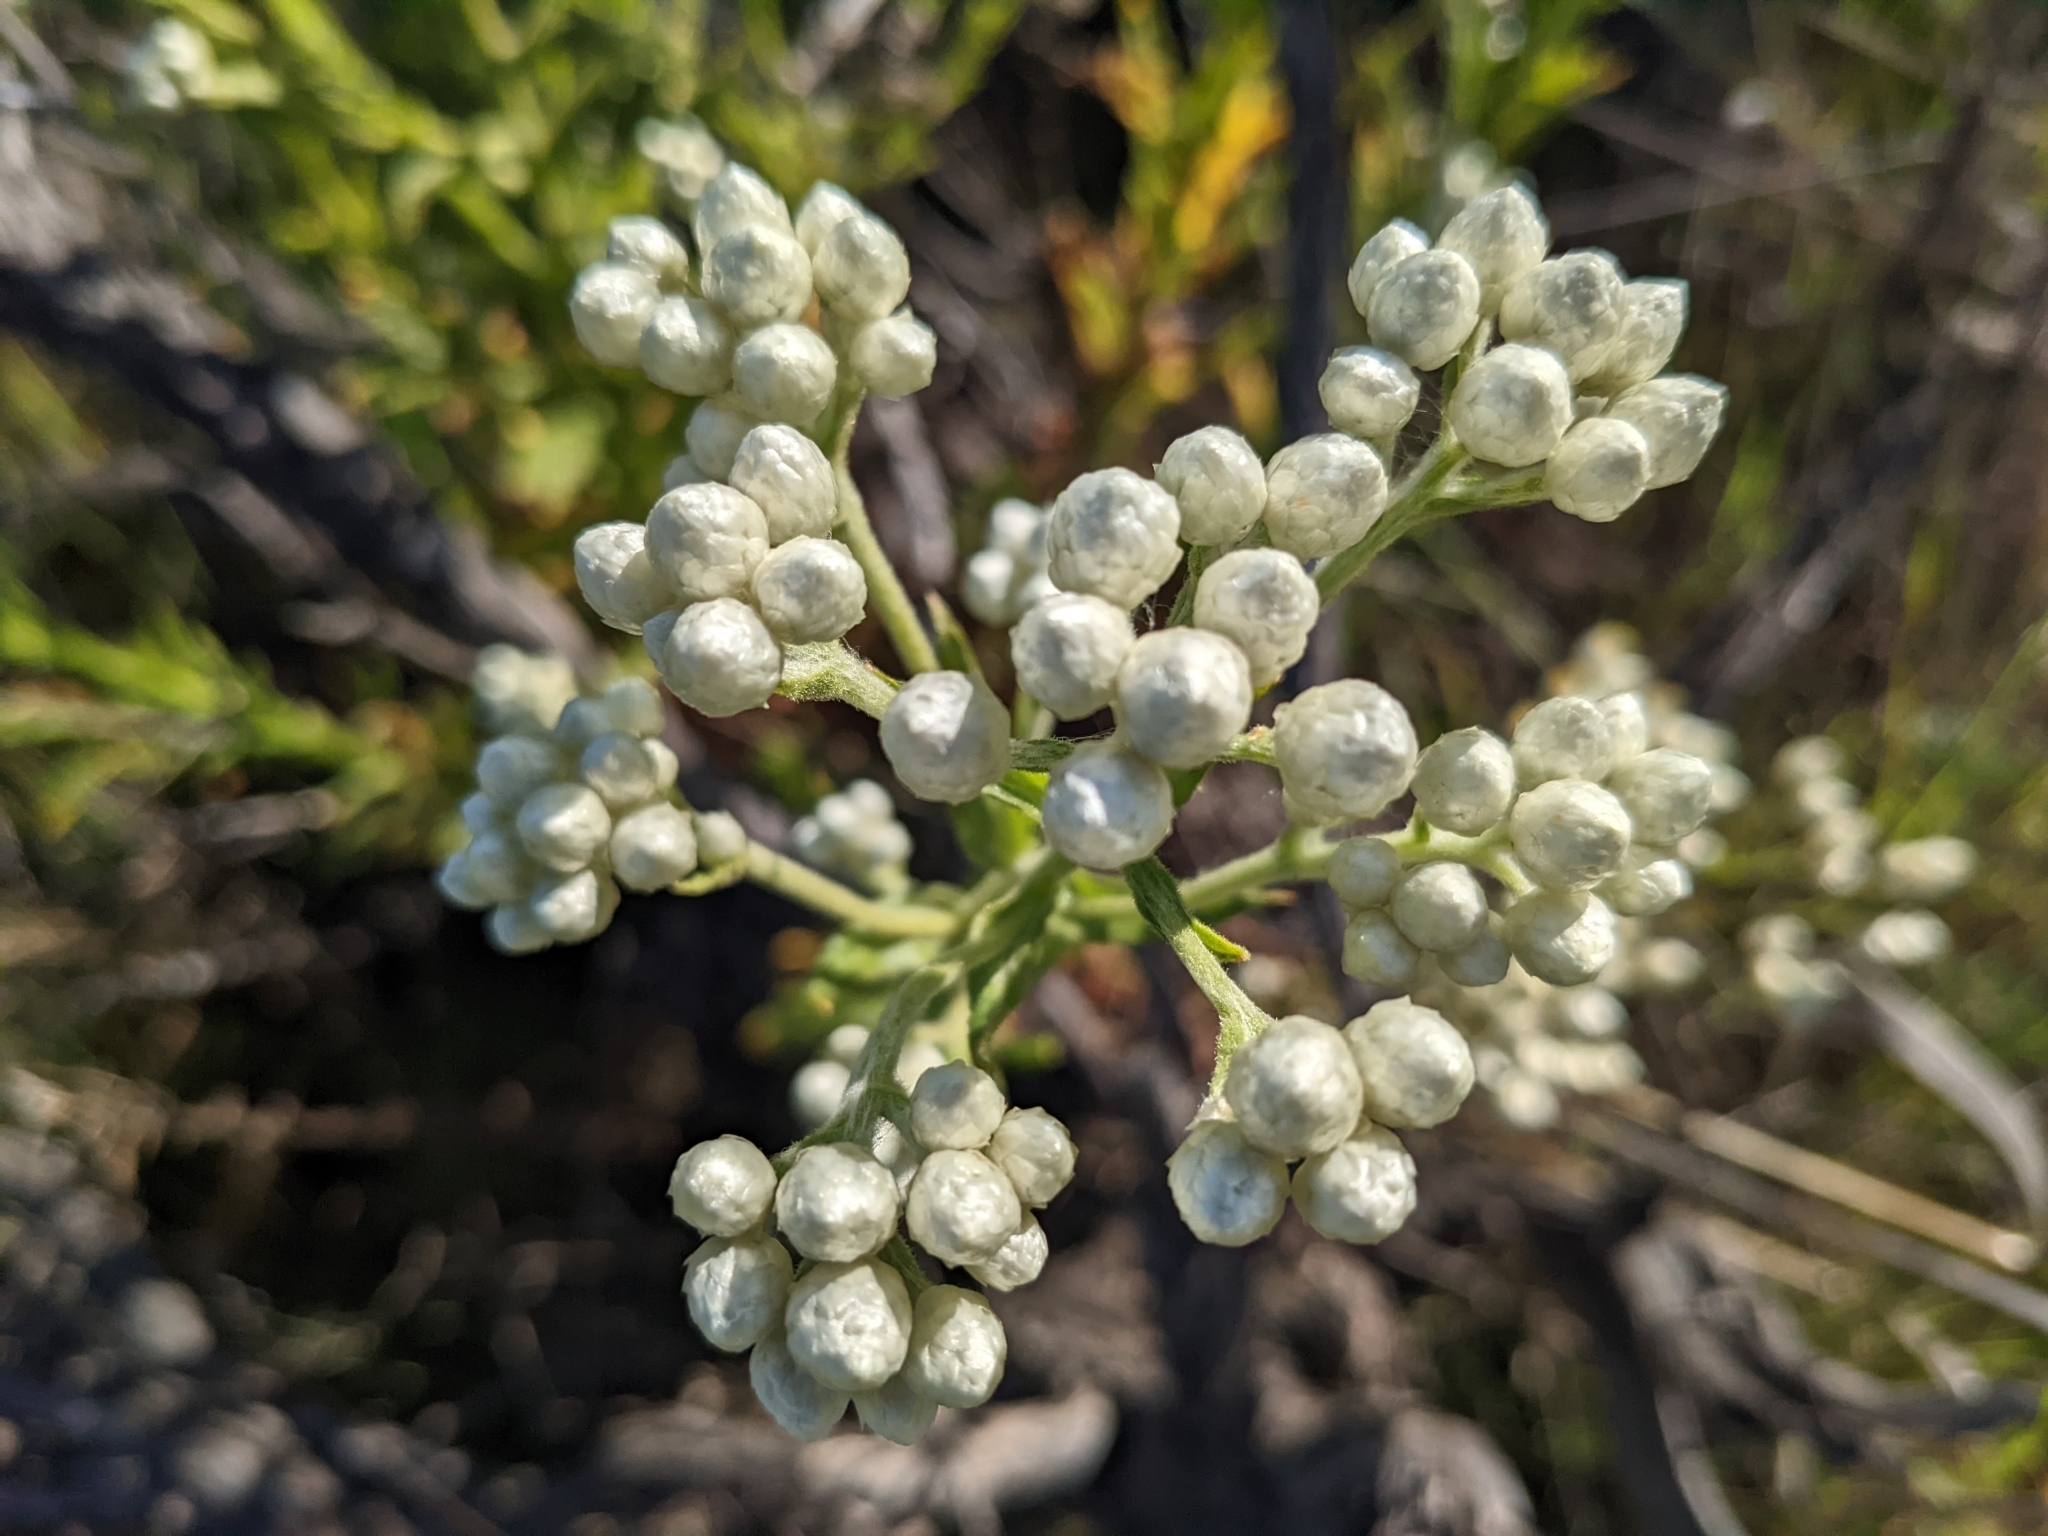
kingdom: Plantae
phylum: Tracheophyta
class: Magnoliopsida
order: Asterales
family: Asteraceae
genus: Pseudognaphalium
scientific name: Pseudognaphalium californicum
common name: California rabbit-tobacco
